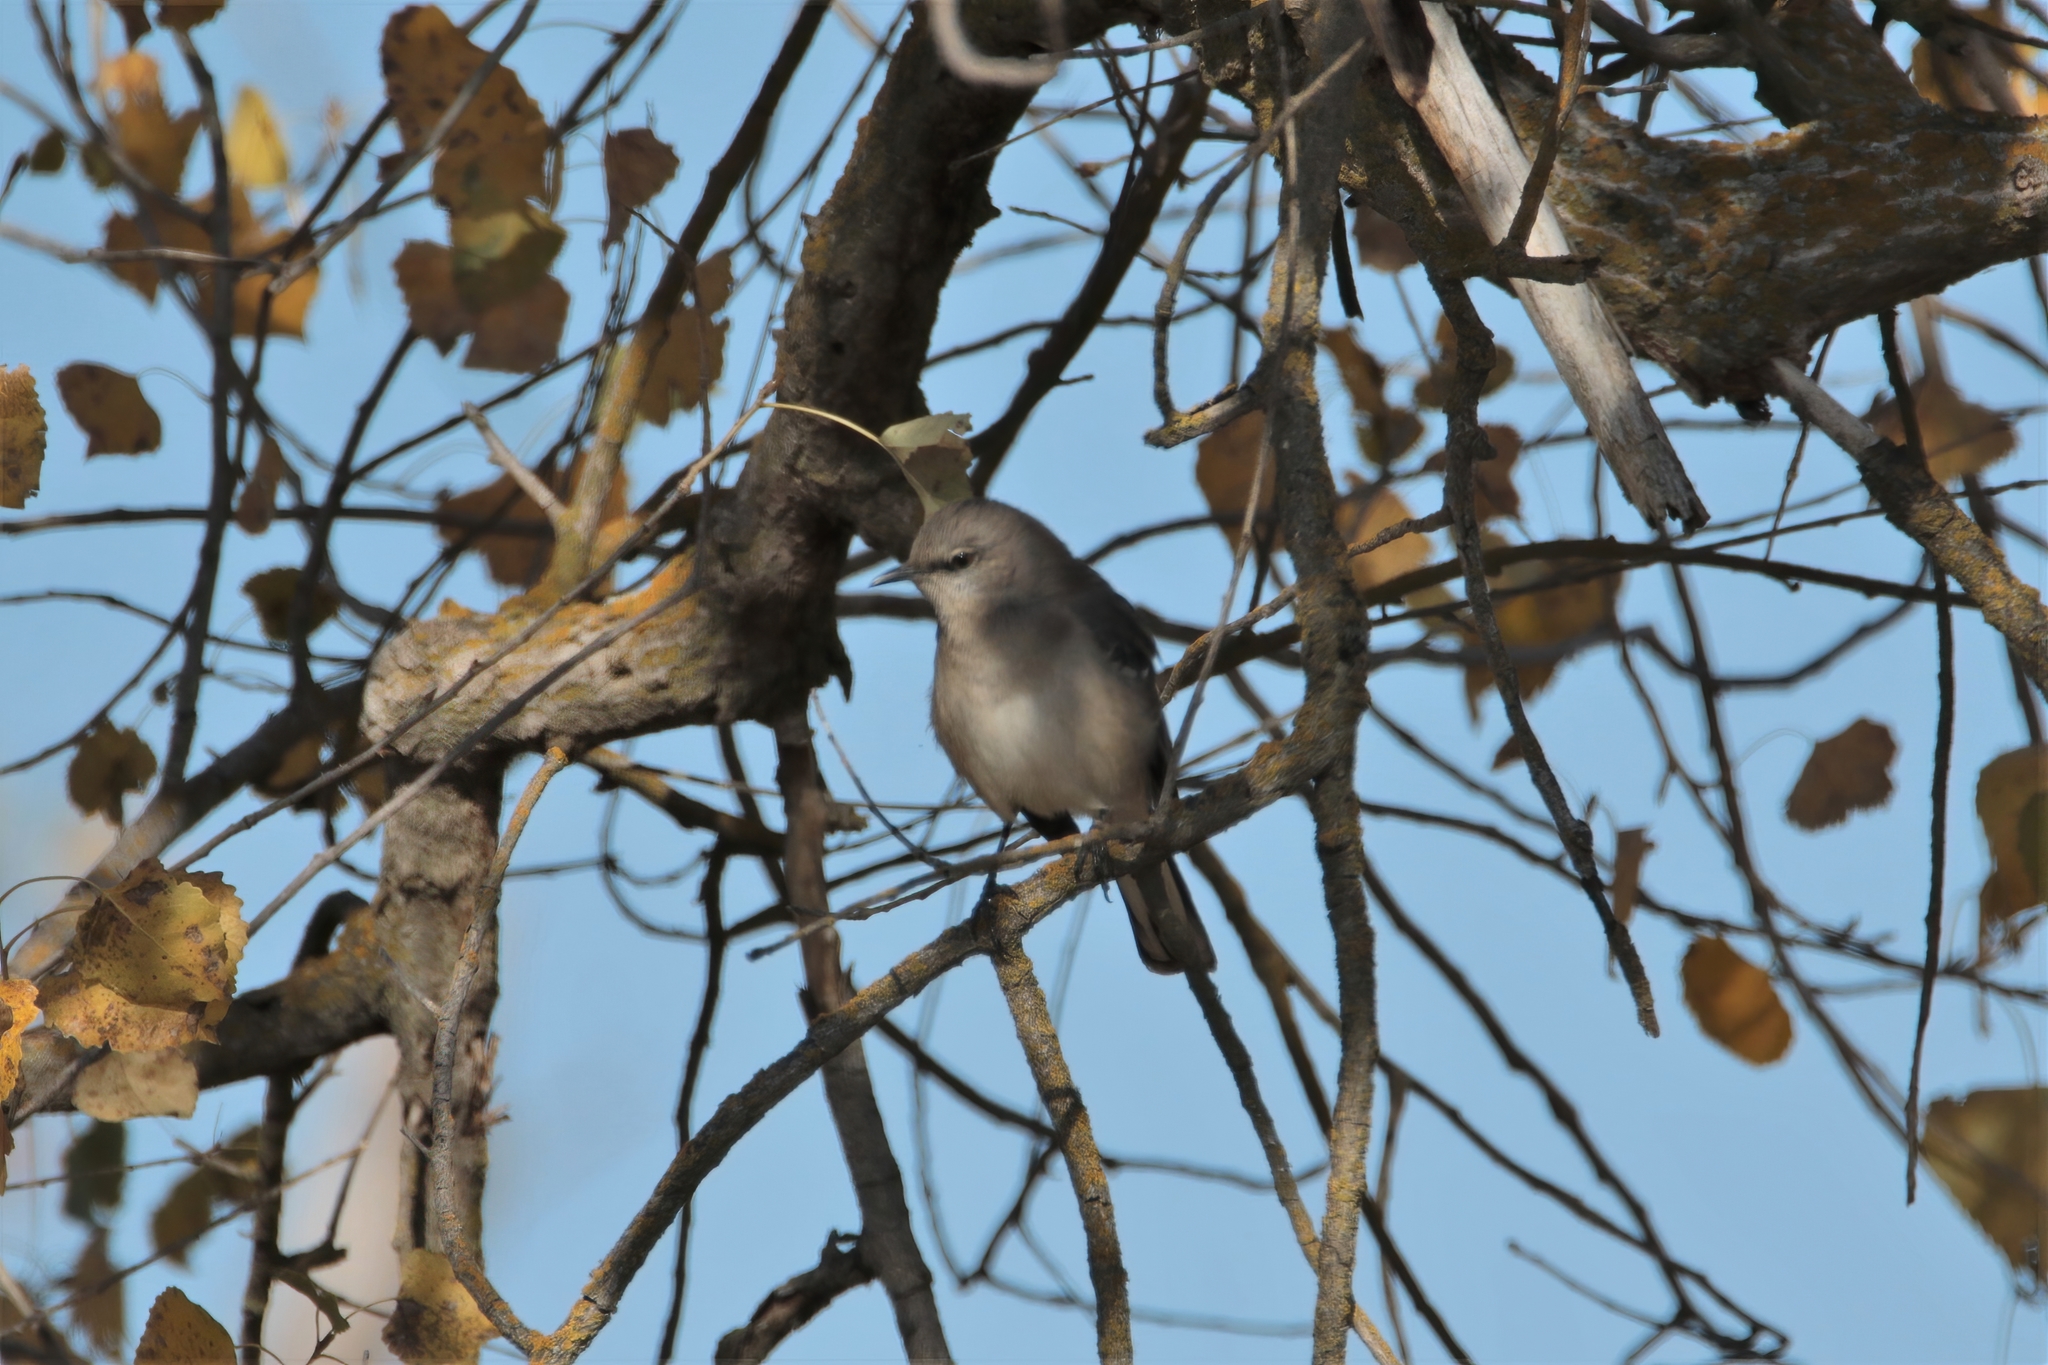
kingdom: Animalia
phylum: Chordata
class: Aves
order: Passeriformes
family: Mimidae
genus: Mimus
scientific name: Mimus polyglottos
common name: Northern mockingbird
